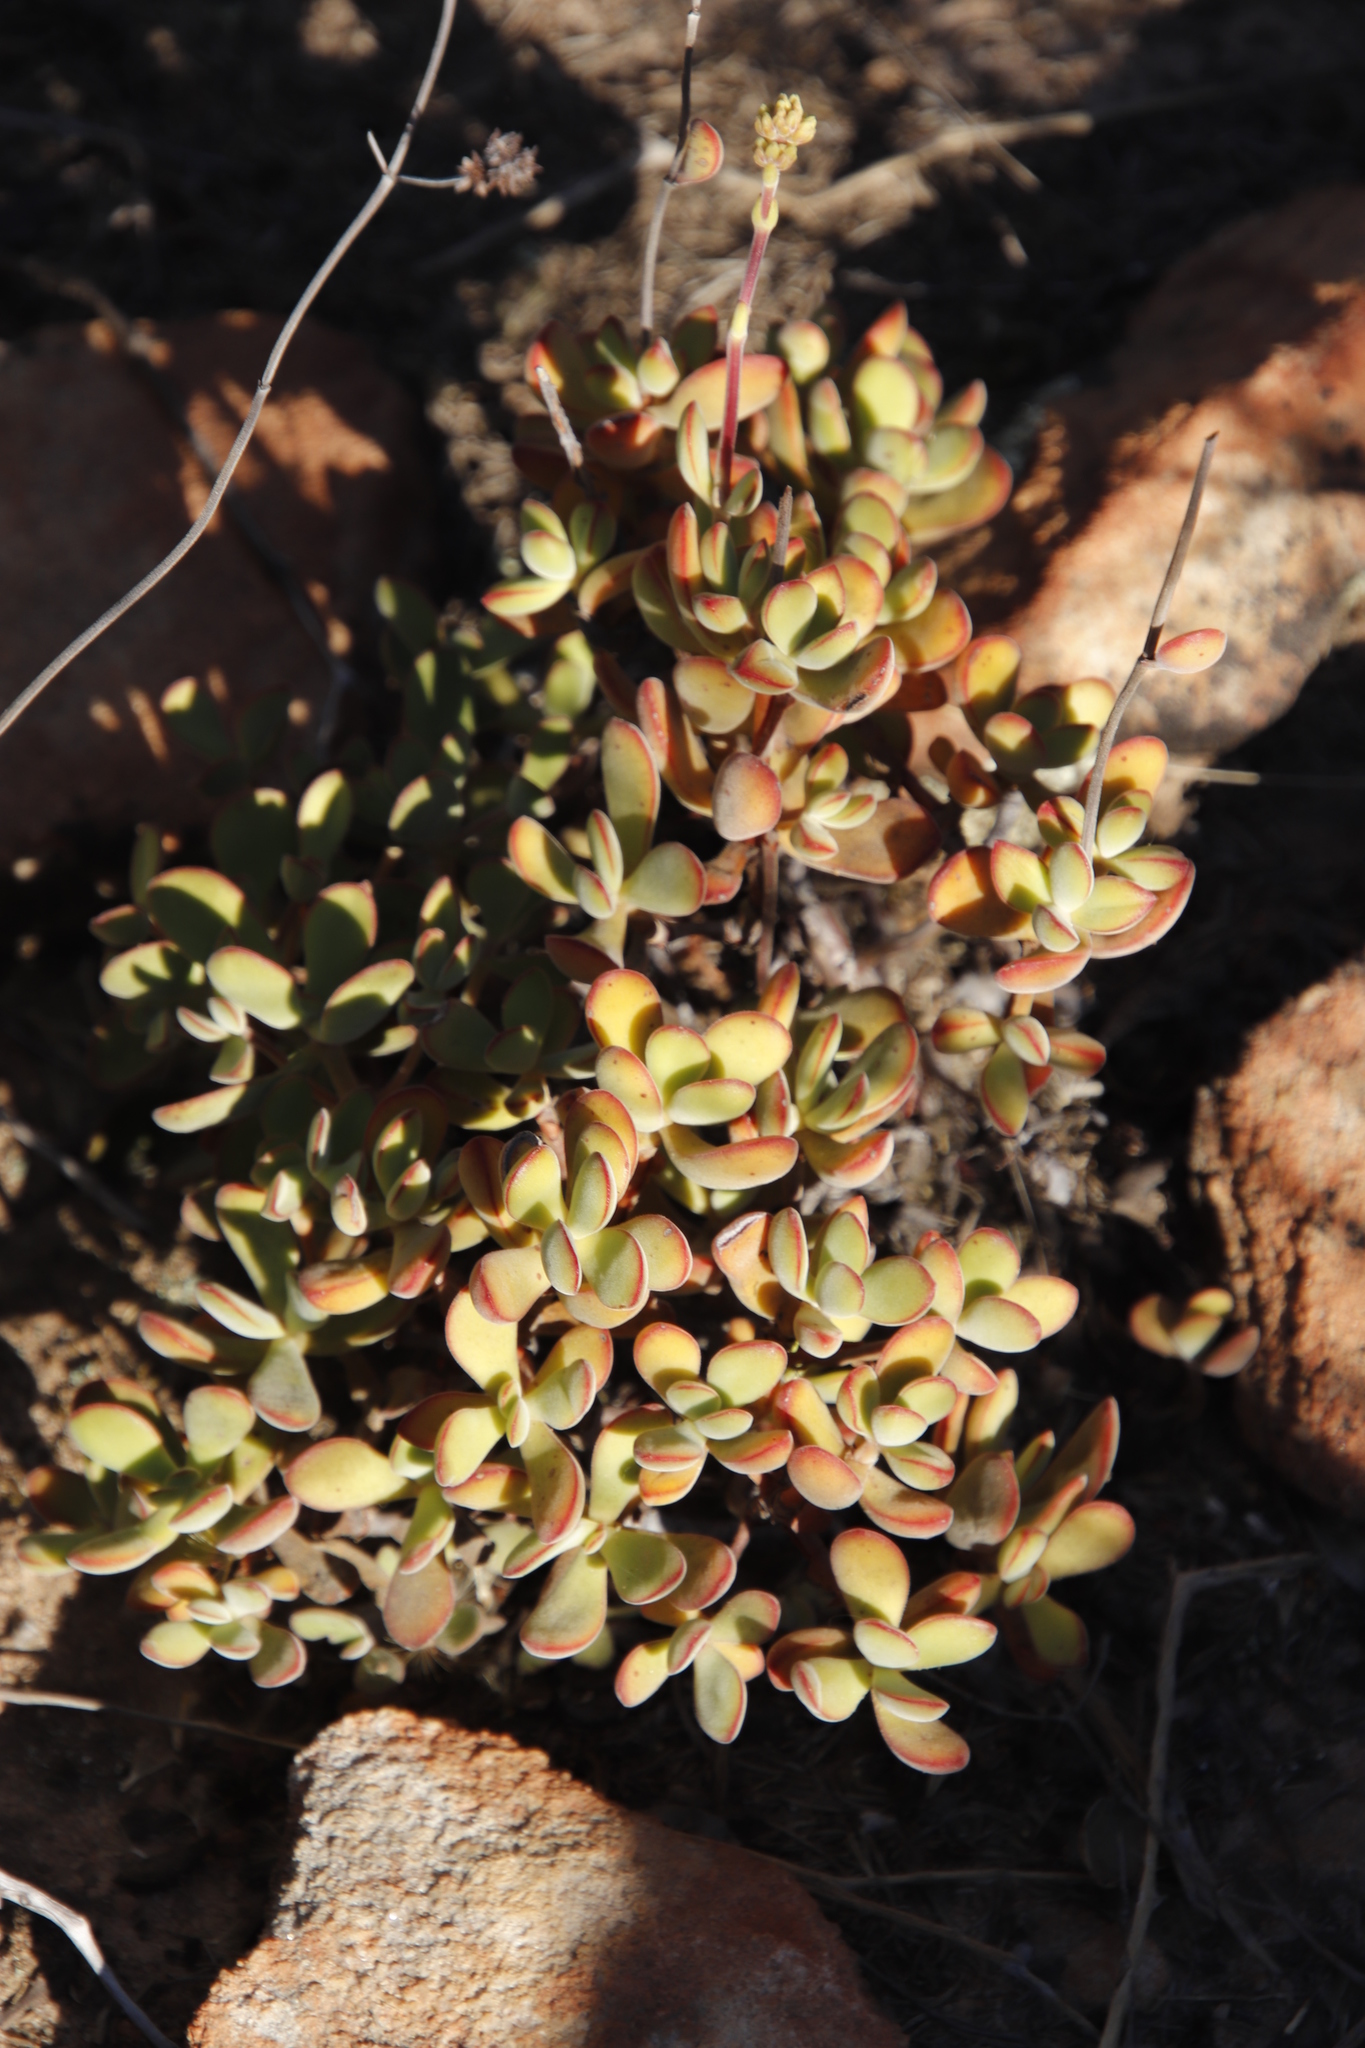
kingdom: Plantae
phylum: Tracheophyta
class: Magnoliopsida
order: Saxifragales
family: Crassulaceae
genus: Crassula
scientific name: Crassula atropurpurea
